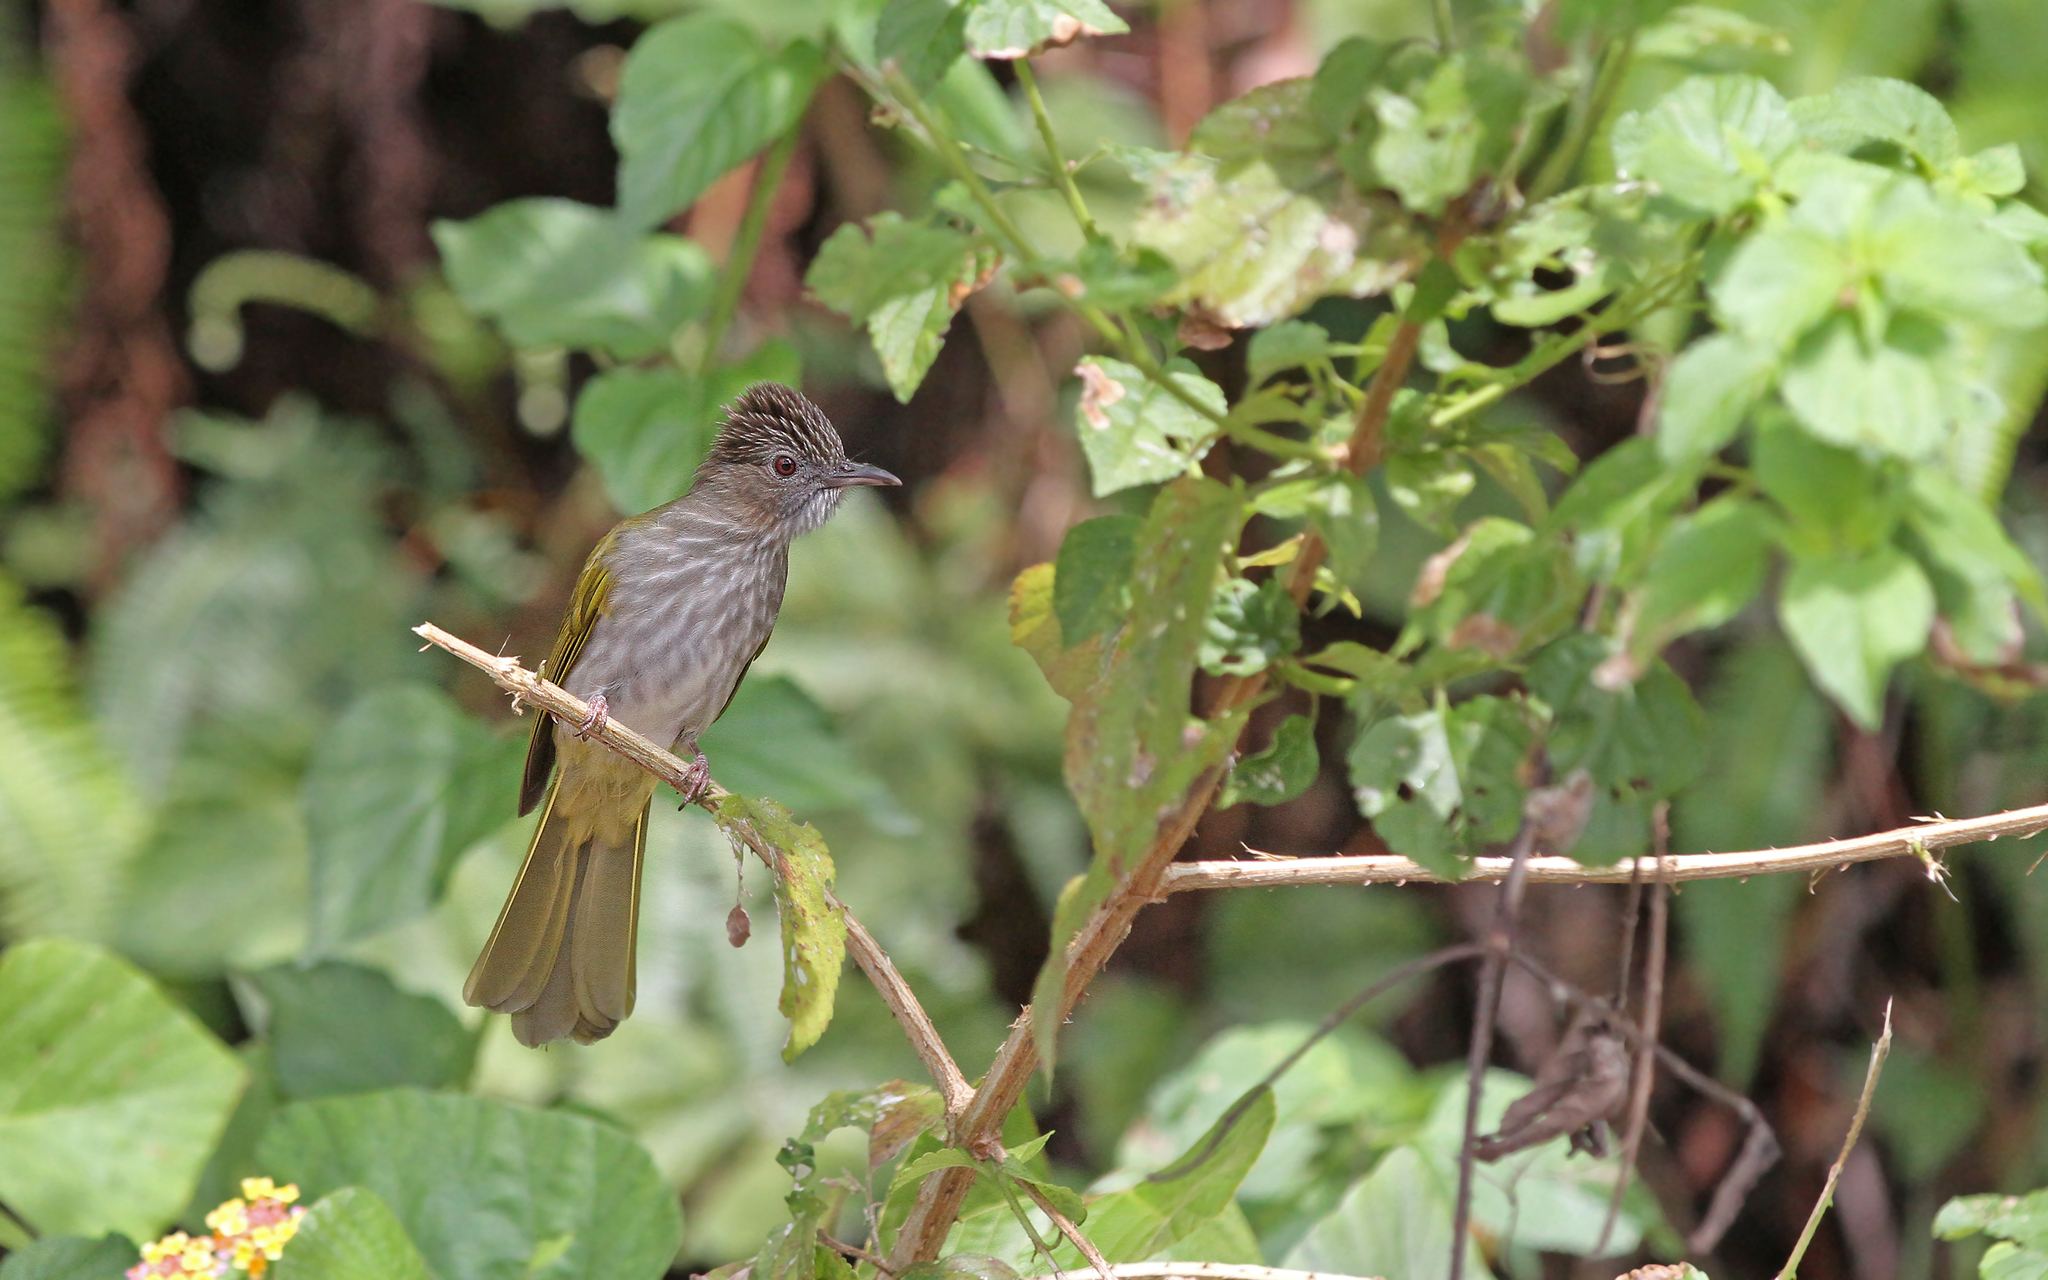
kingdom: Animalia
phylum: Chordata
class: Aves
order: Passeriformes
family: Pycnonotidae
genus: Ixos
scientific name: Ixos mcclellandii
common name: Mountain bulbul
